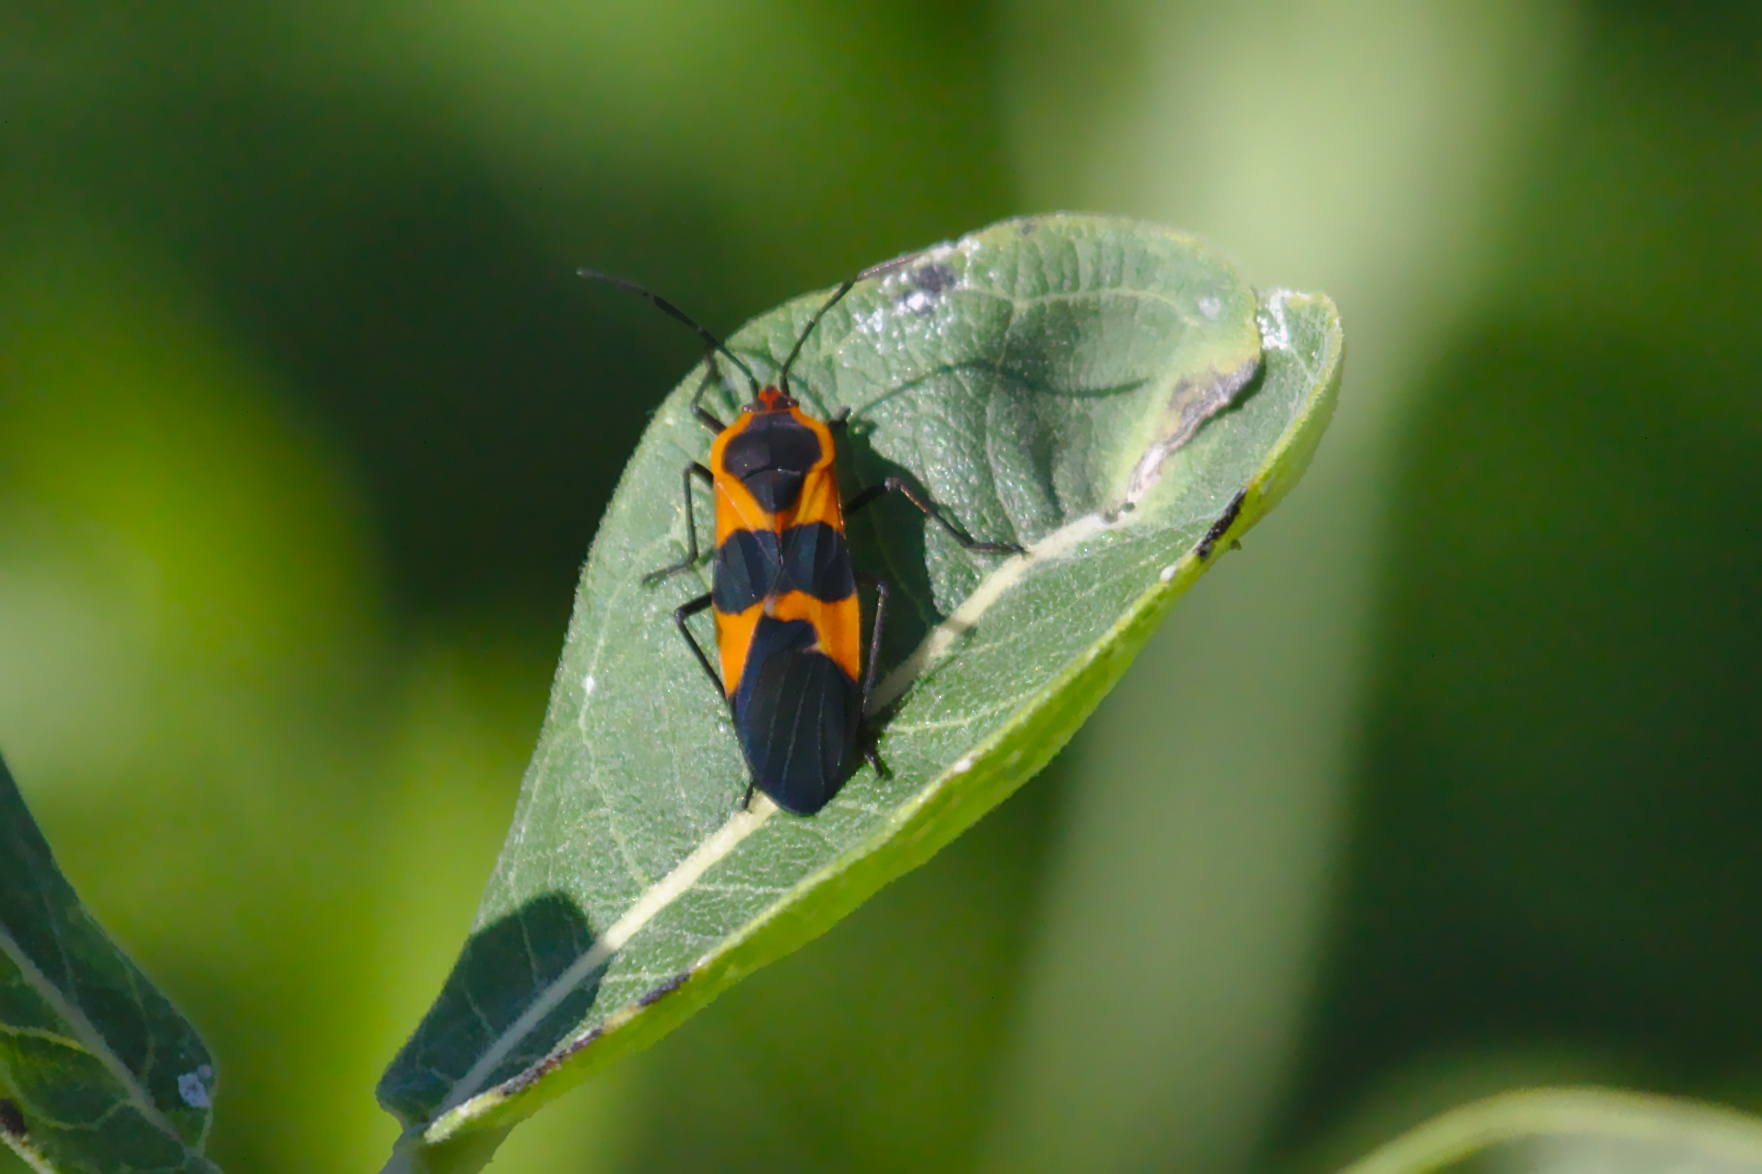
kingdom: Animalia
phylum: Arthropoda
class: Insecta
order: Hemiptera
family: Lygaeidae
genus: Oncopeltus
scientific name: Oncopeltus fasciatus
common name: Large milkweed bug
